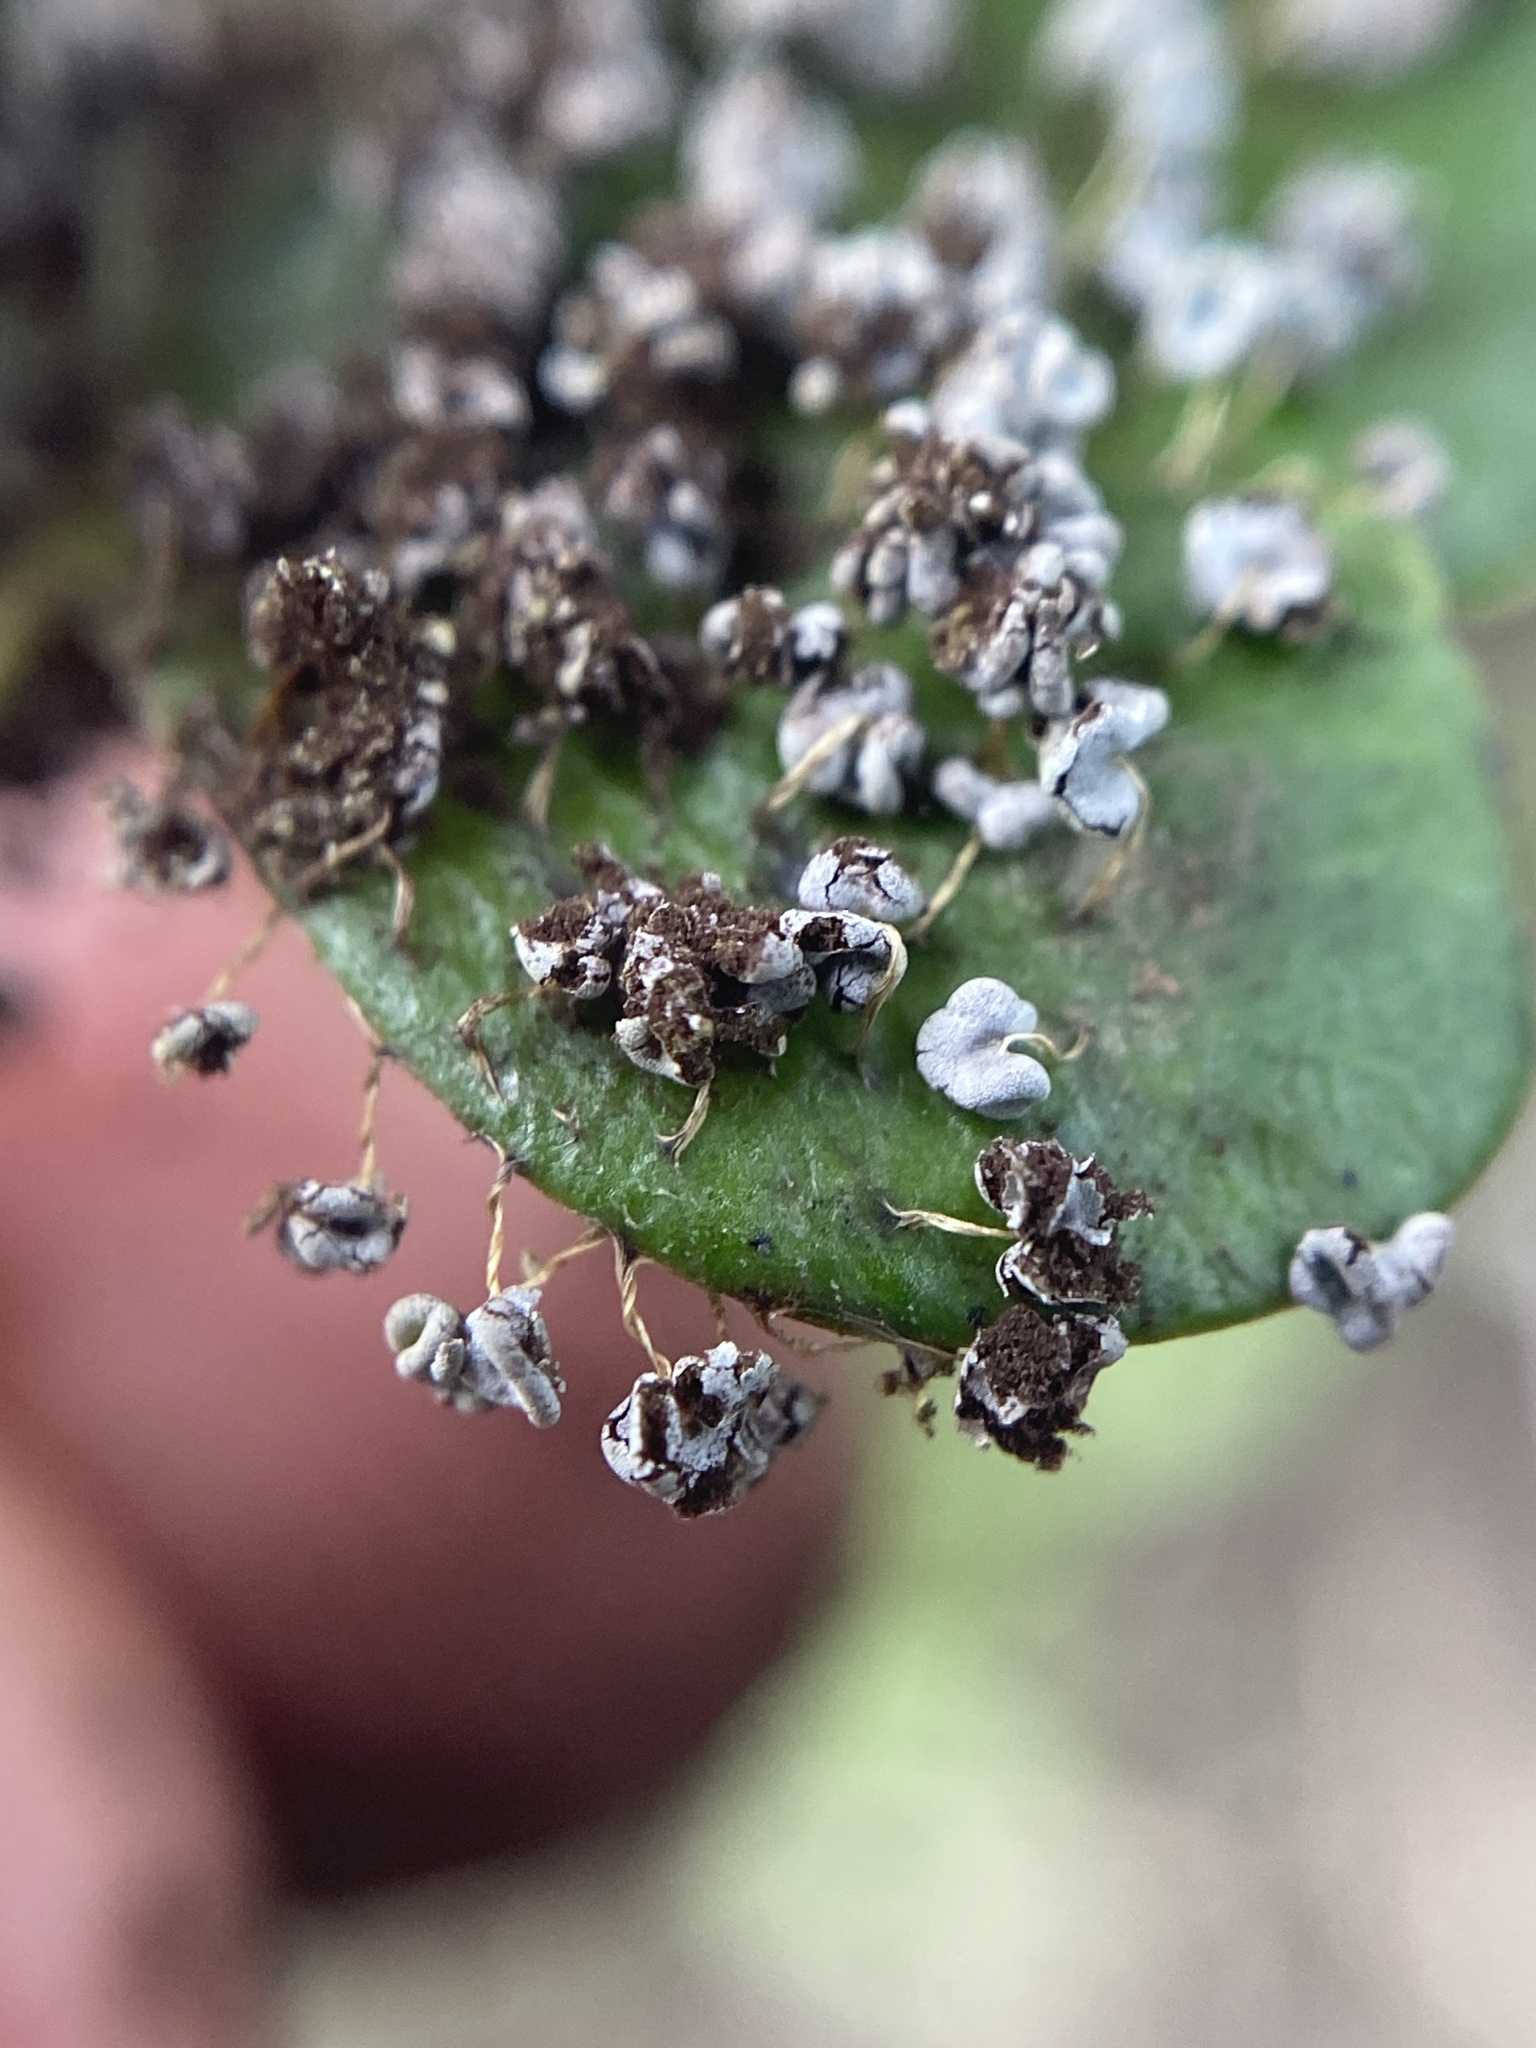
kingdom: Protozoa
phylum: Mycetozoa
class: Myxomycetes
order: Physarales
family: Physaraceae
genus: Physarum
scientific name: Physarum polycephalum
